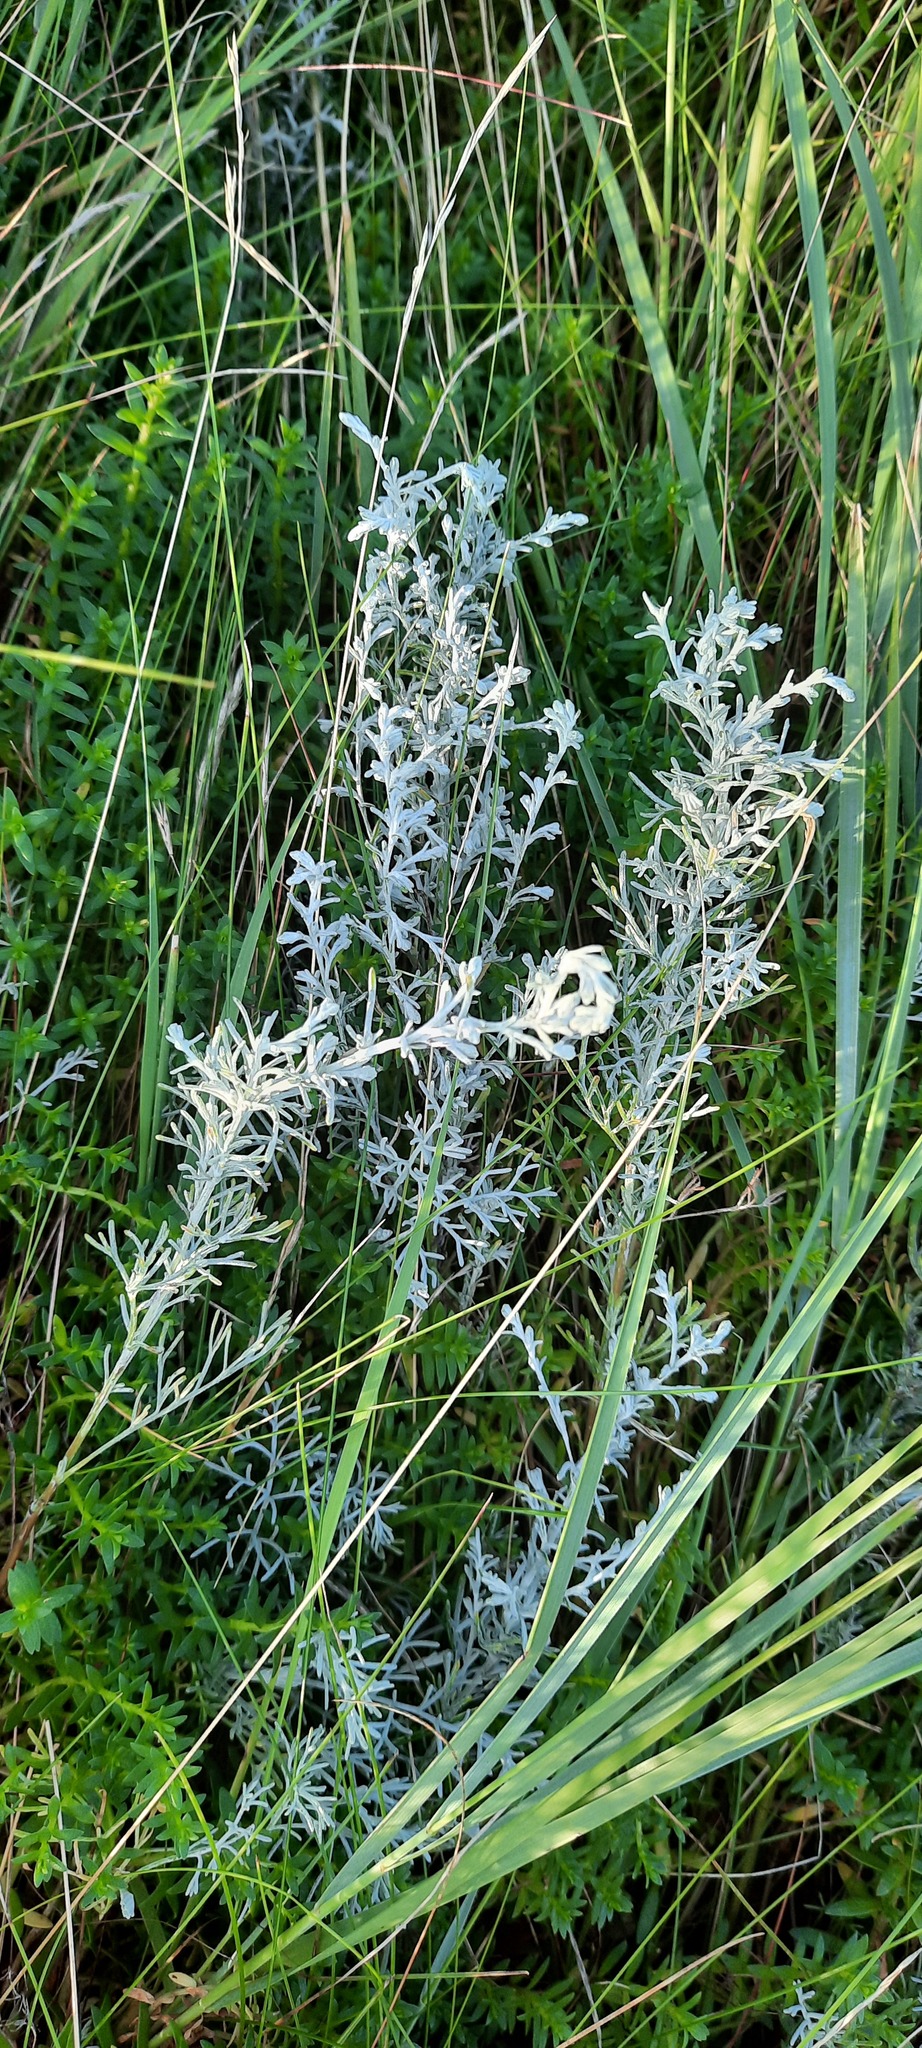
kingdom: Plantae
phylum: Tracheophyta
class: Magnoliopsida
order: Asterales
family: Asteraceae
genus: Artemisia
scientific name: Artemisia maritima
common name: Wormseed
